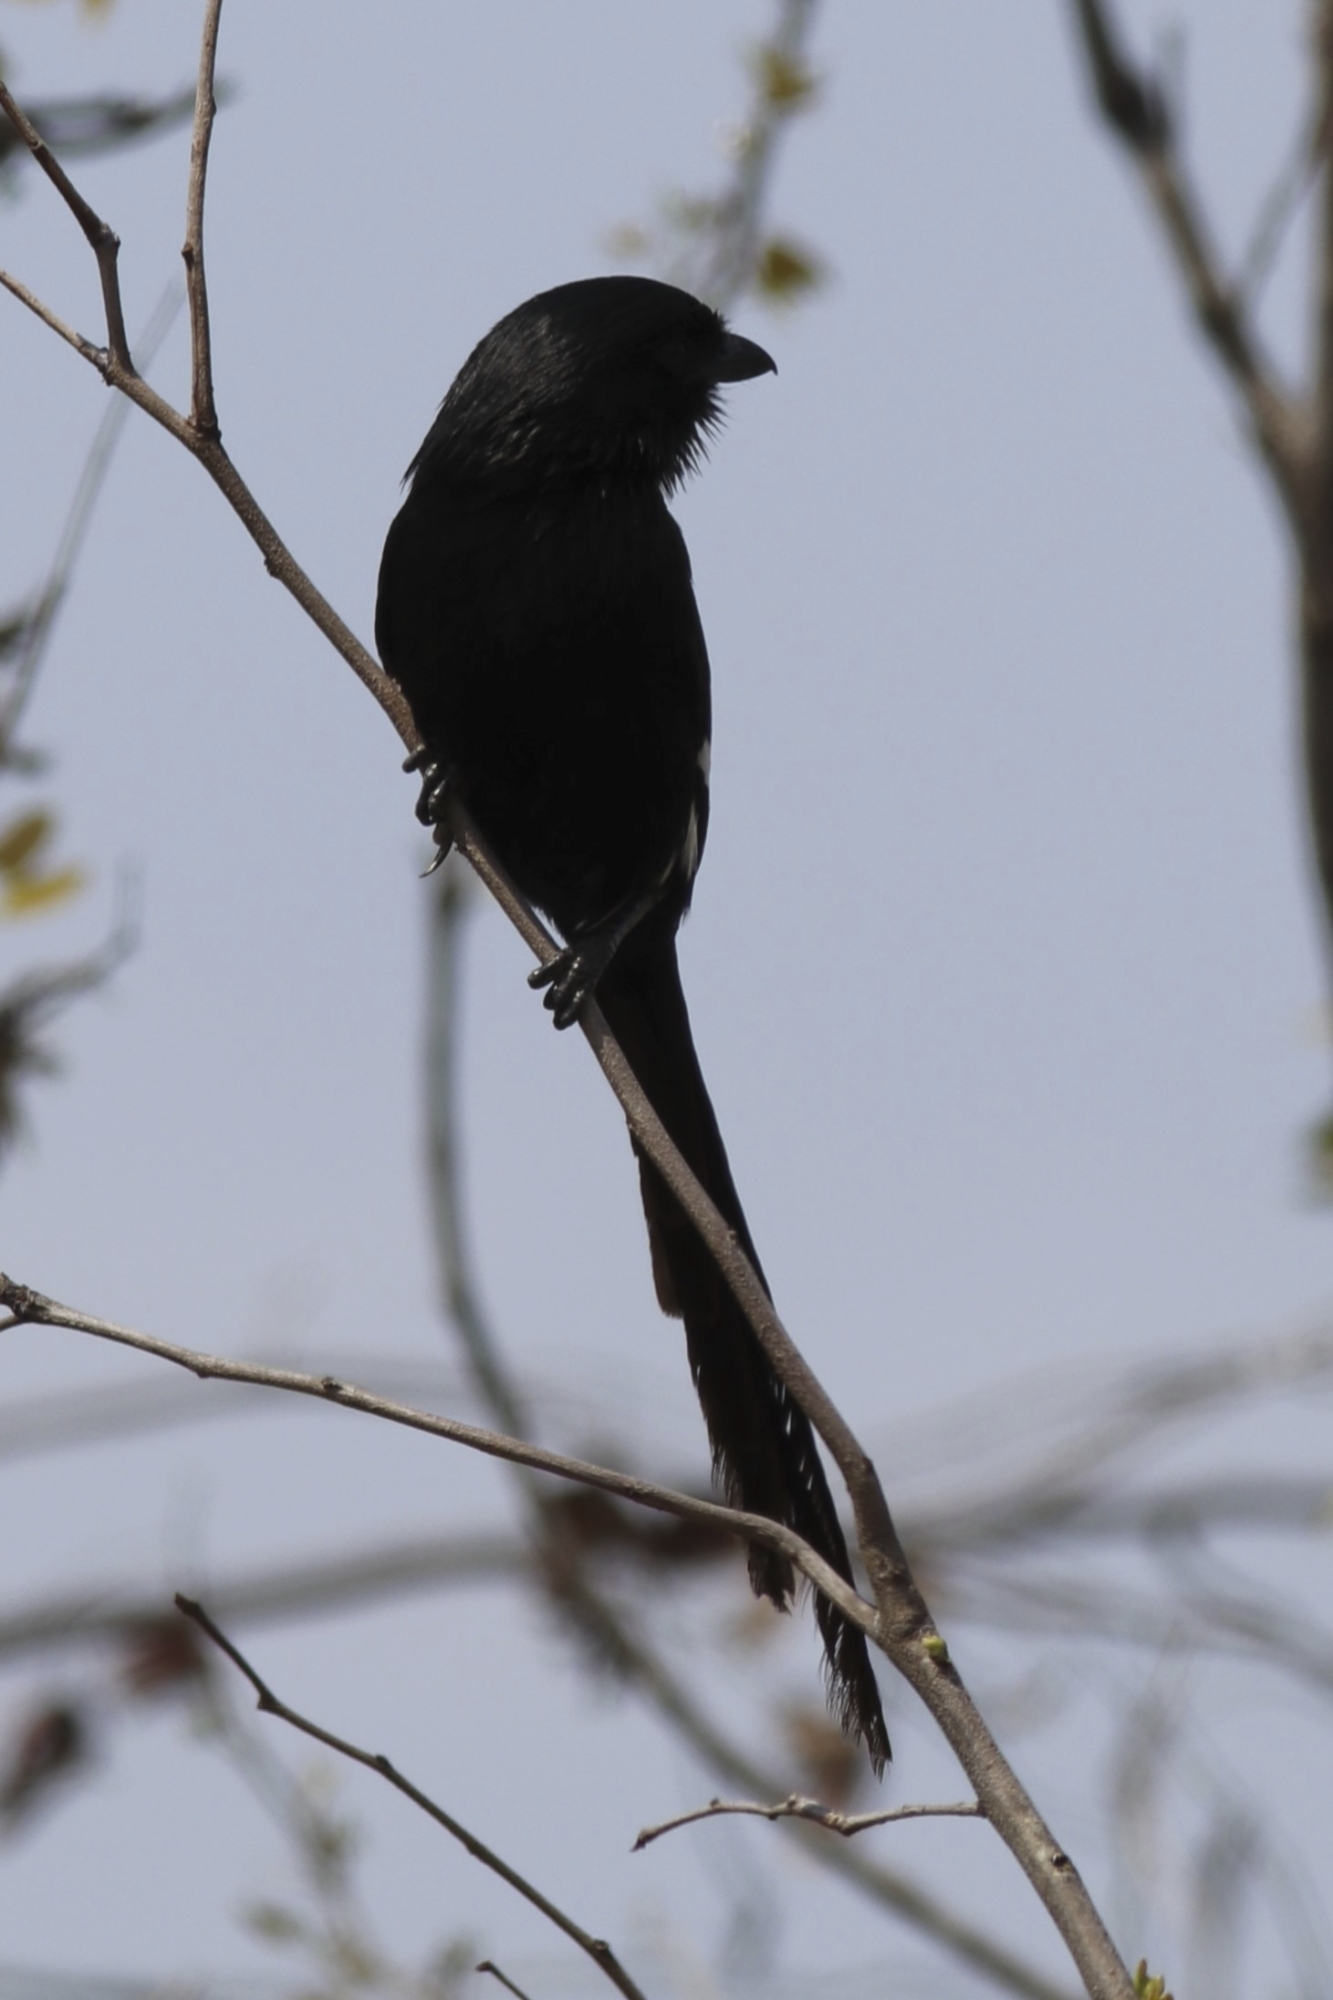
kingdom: Animalia
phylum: Chordata
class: Aves
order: Passeriformes
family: Laniidae
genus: Urolestes
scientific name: Urolestes melanoleucus
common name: Magpie shrike
